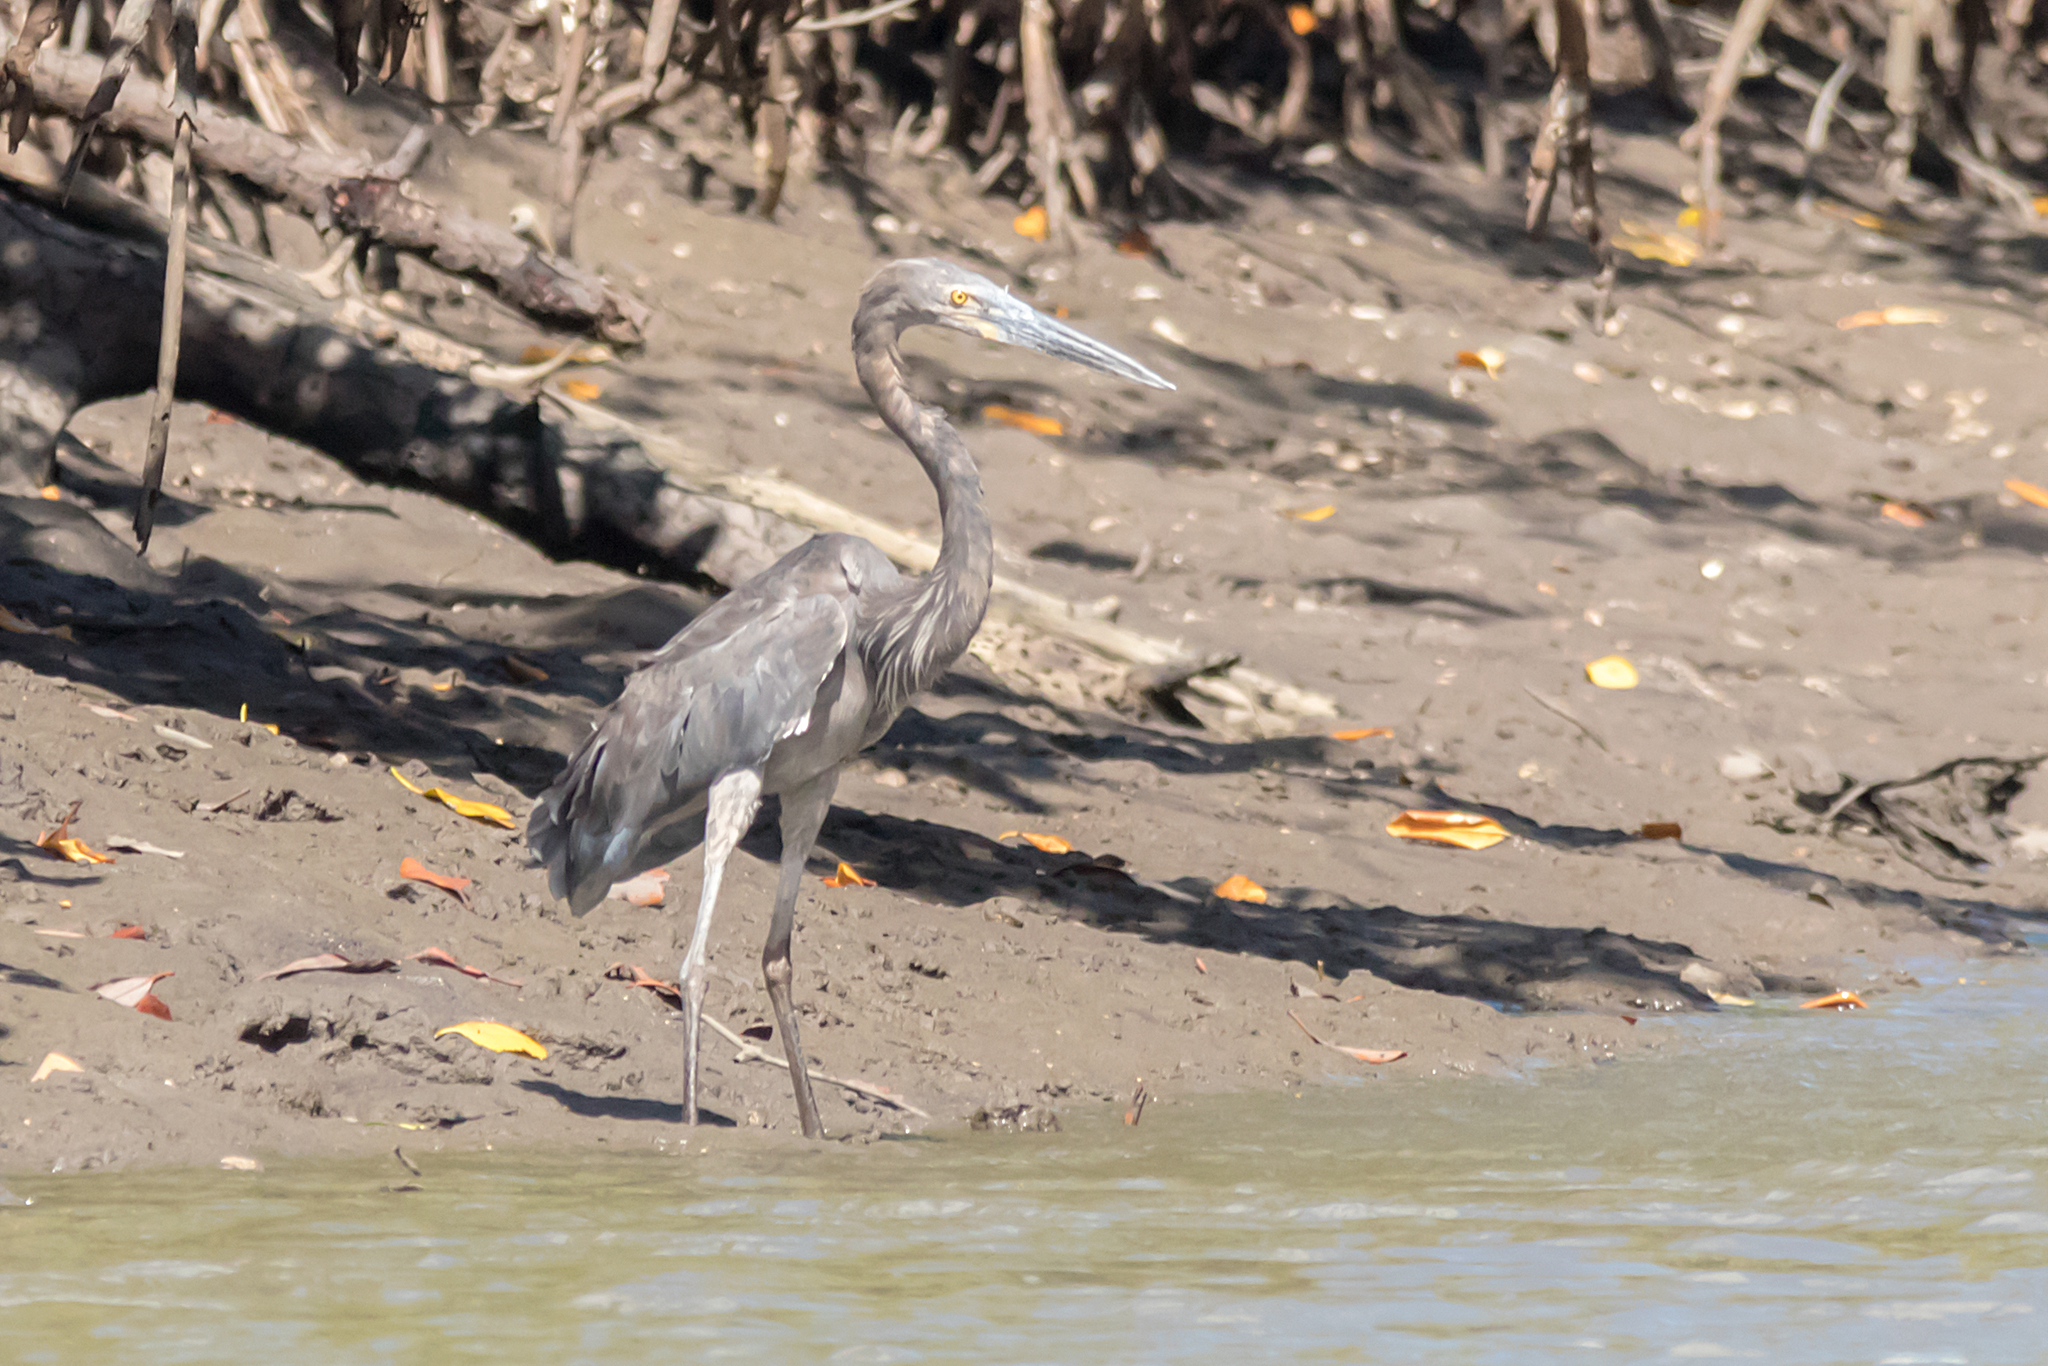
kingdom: Animalia
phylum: Chordata
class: Aves
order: Pelecaniformes
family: Ardeidae
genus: Ardea
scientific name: Ardea sumatrana
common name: Great-billed heron
